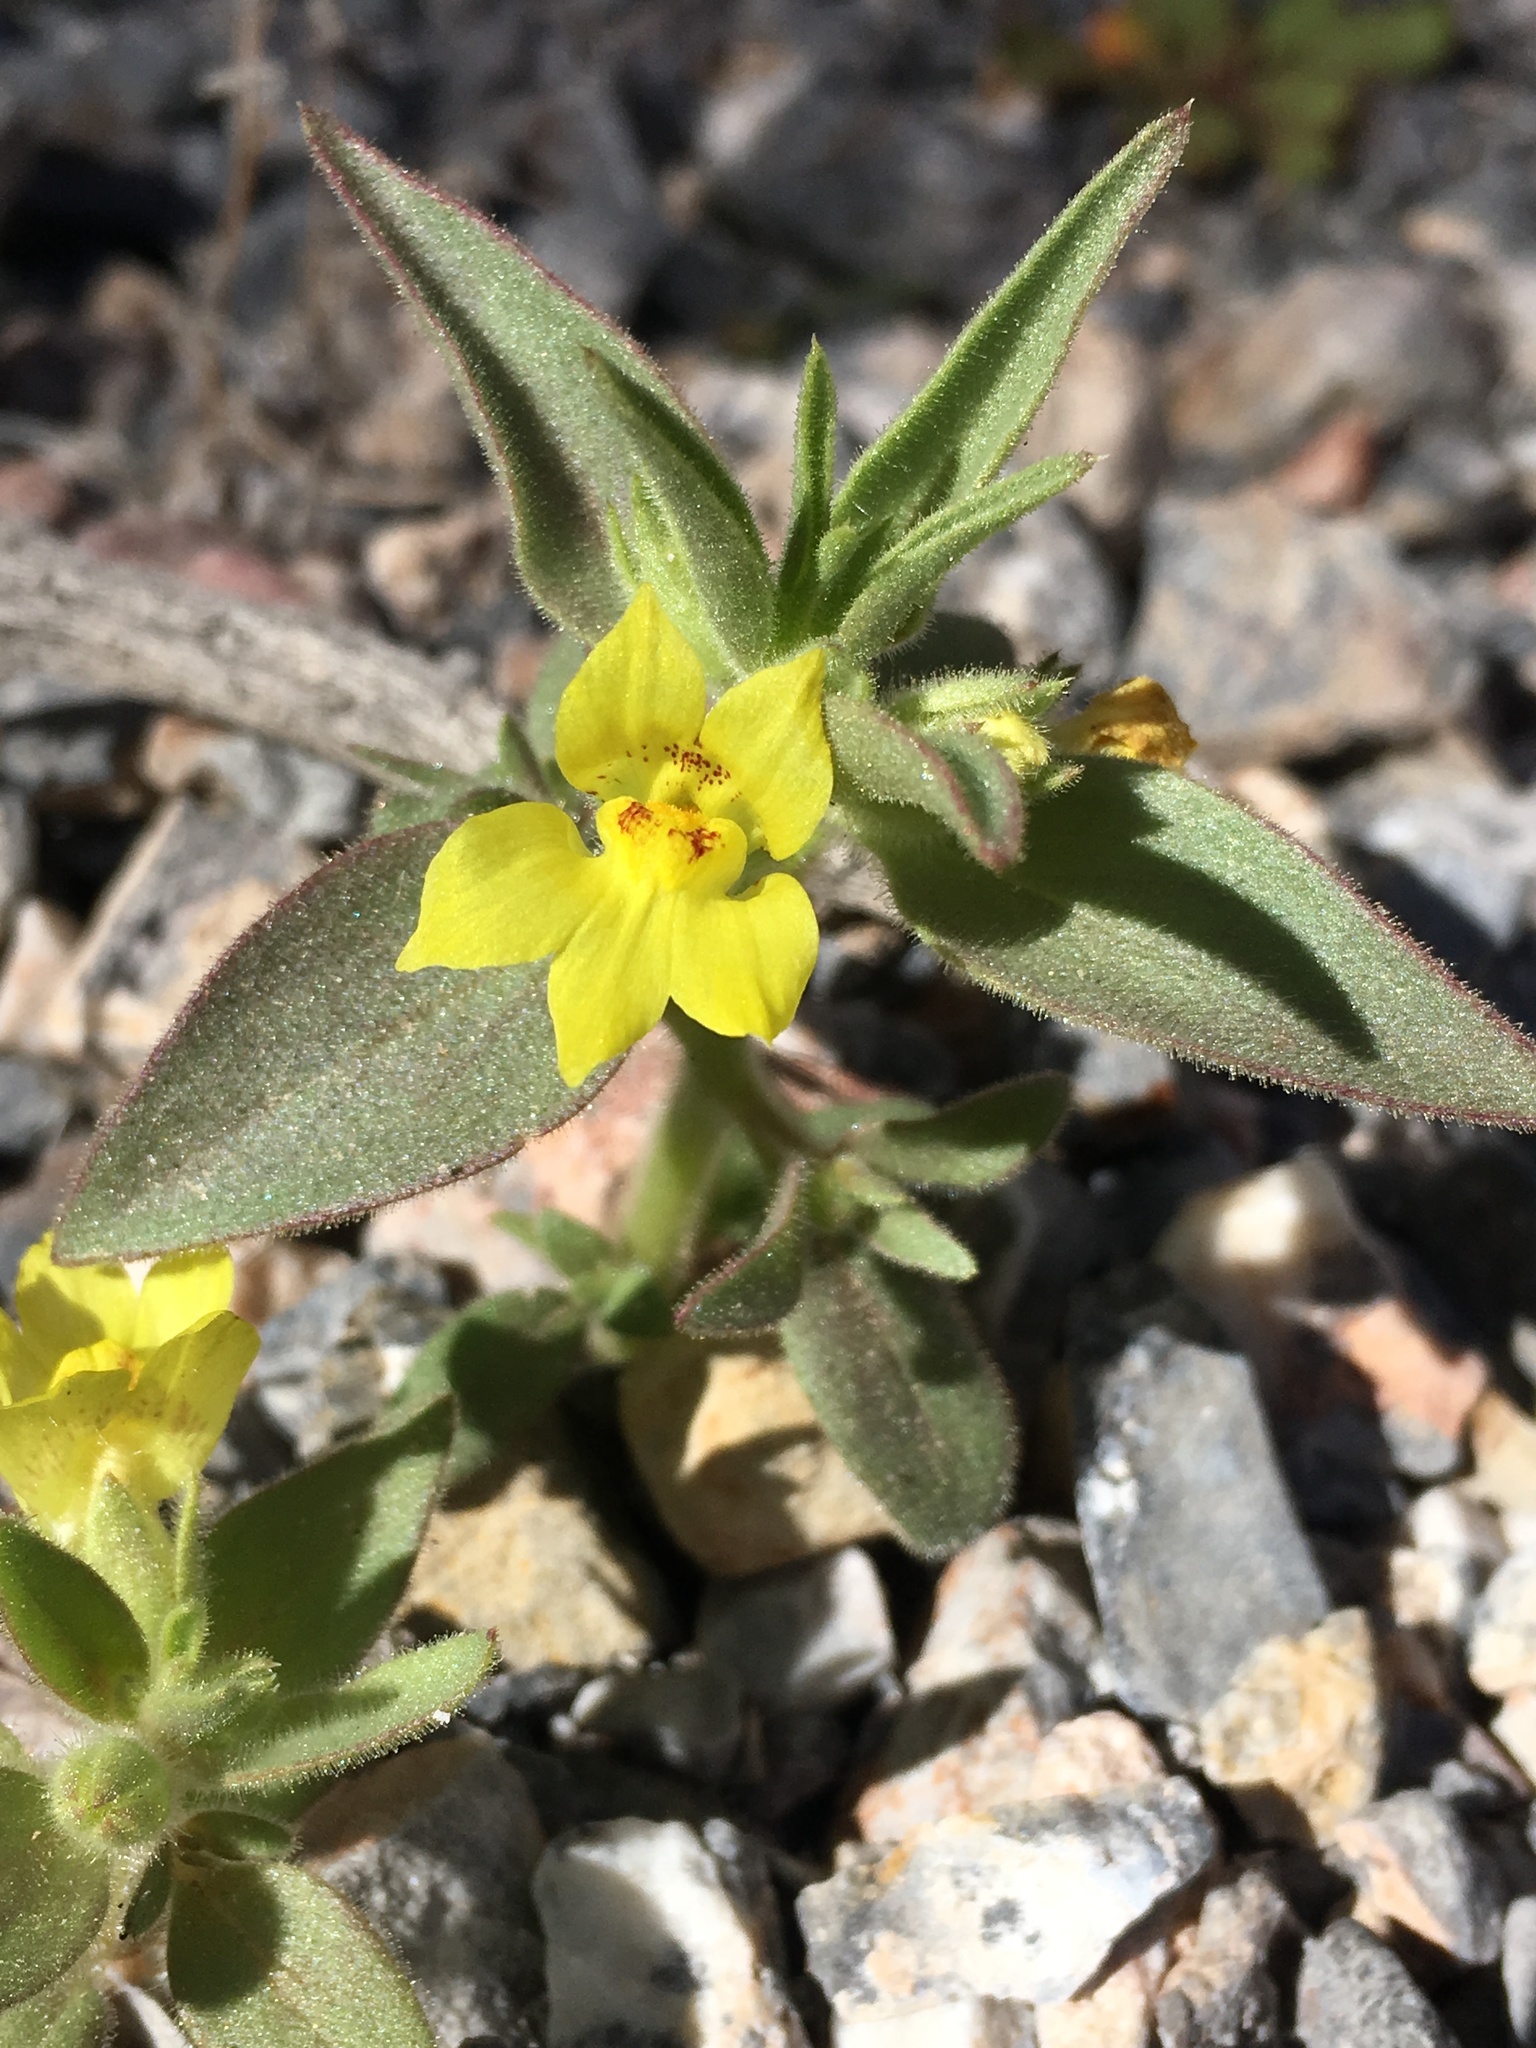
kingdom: Plantae
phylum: Tracheophyta
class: Magnoliopsida
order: Lamiales
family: Plantaginaceae
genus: Mohavea
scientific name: Mohavea breviflora
